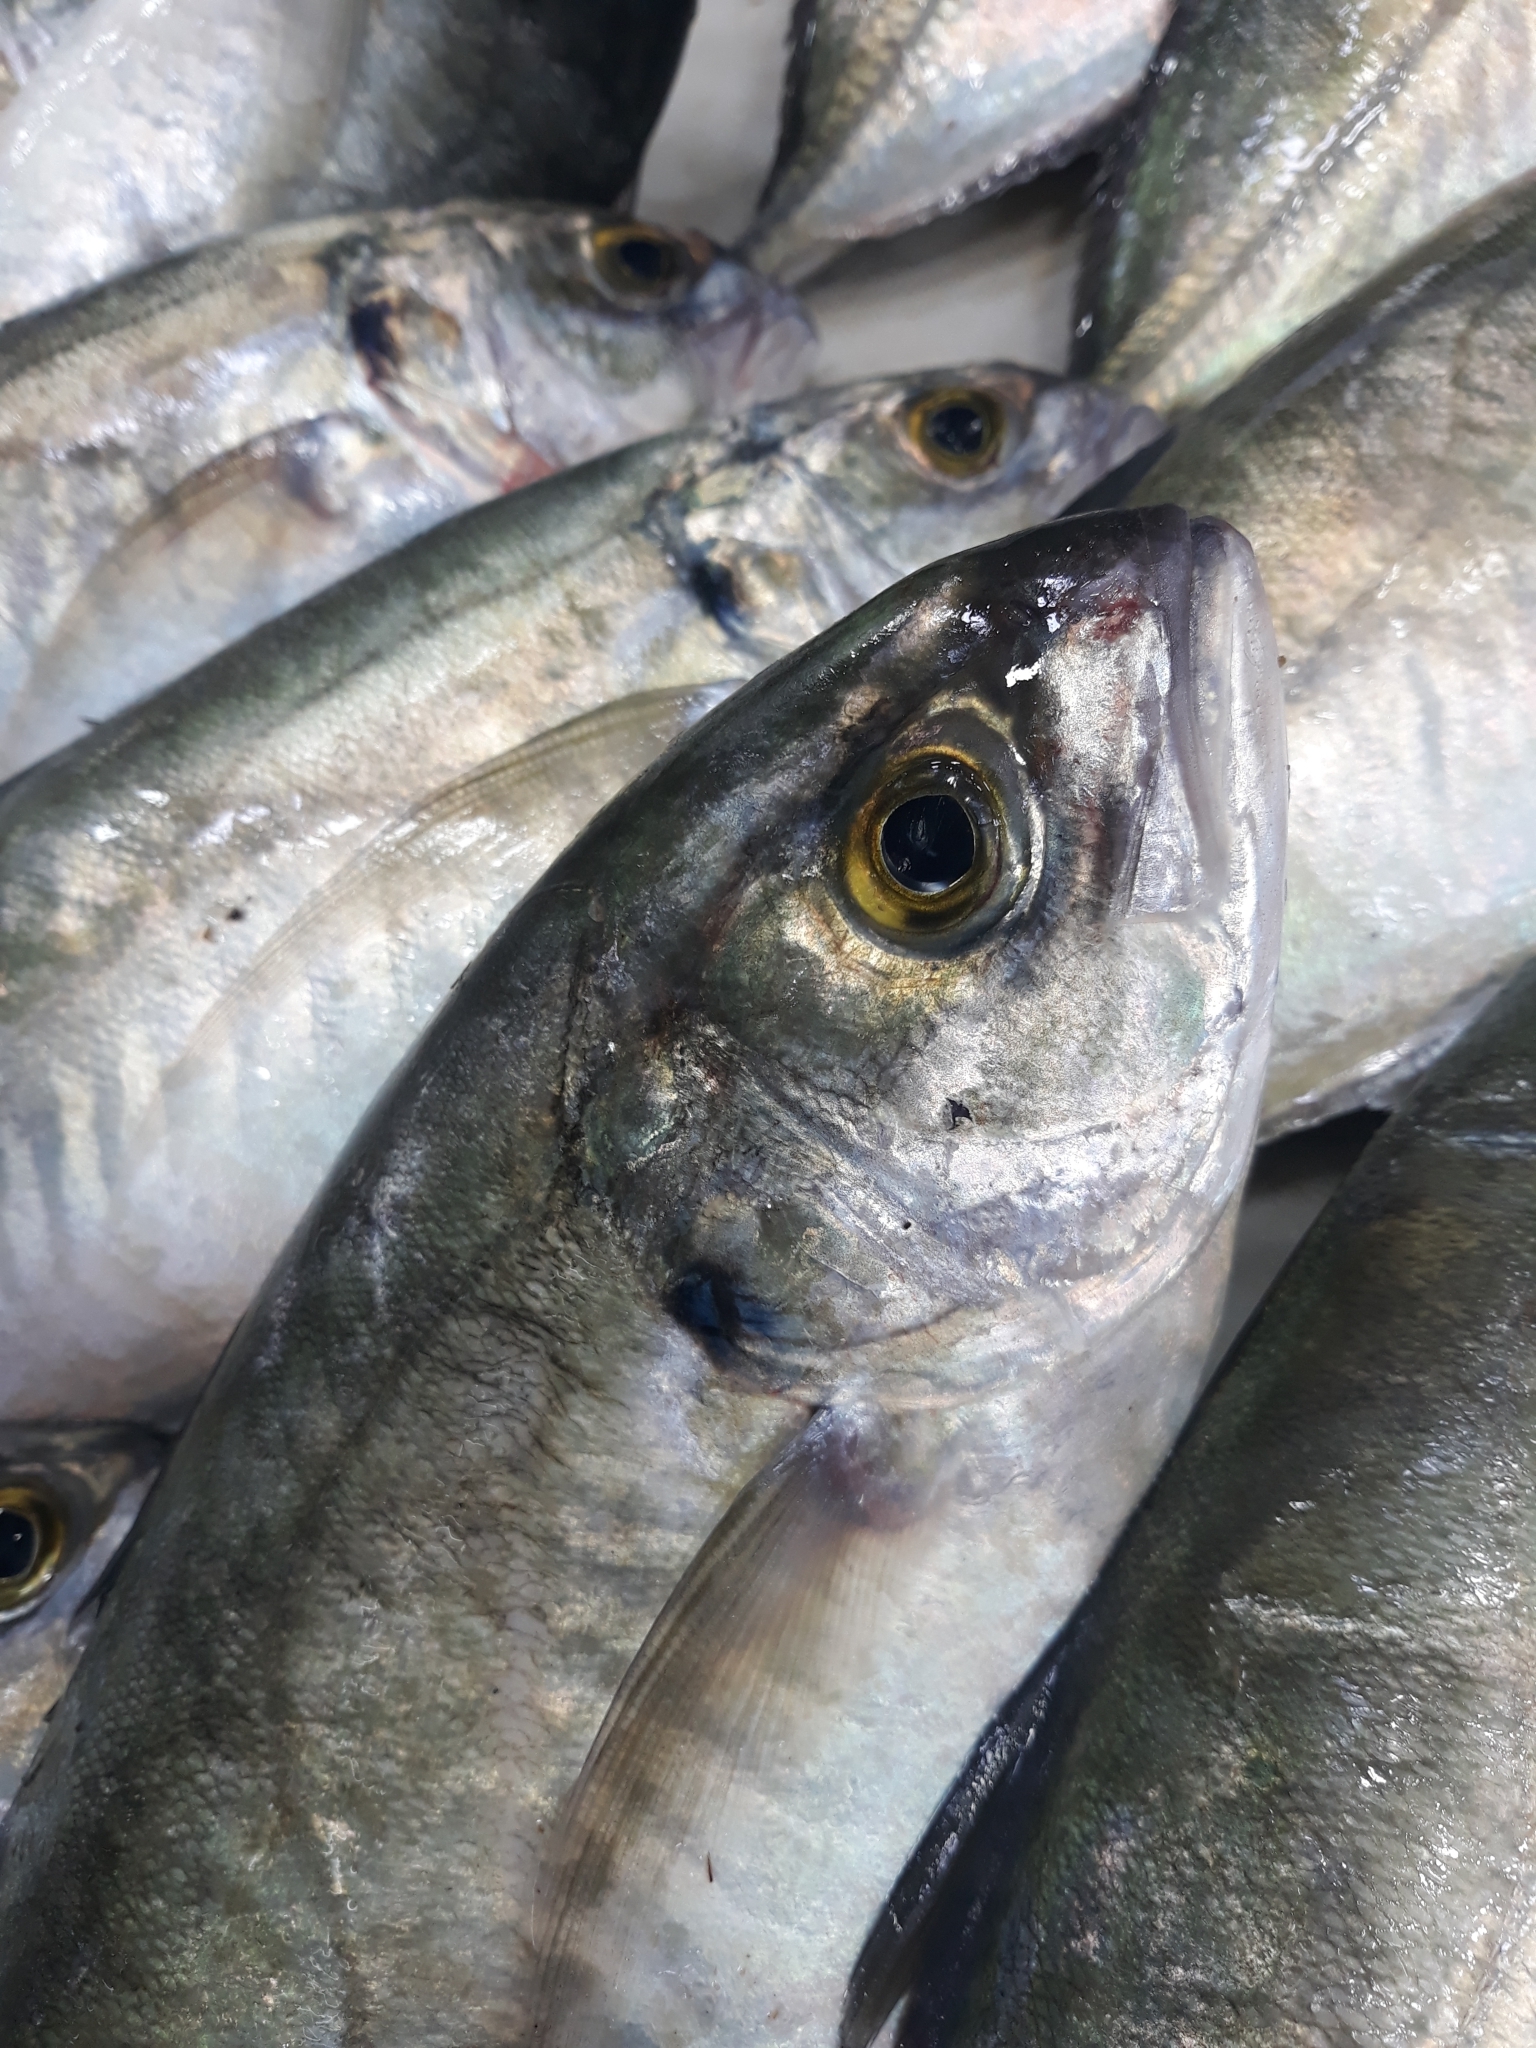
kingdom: Animalia
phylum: Chordata
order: Perciformes
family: Carangidae
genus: Caranx
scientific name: Caranx crysos
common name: Blue runner
